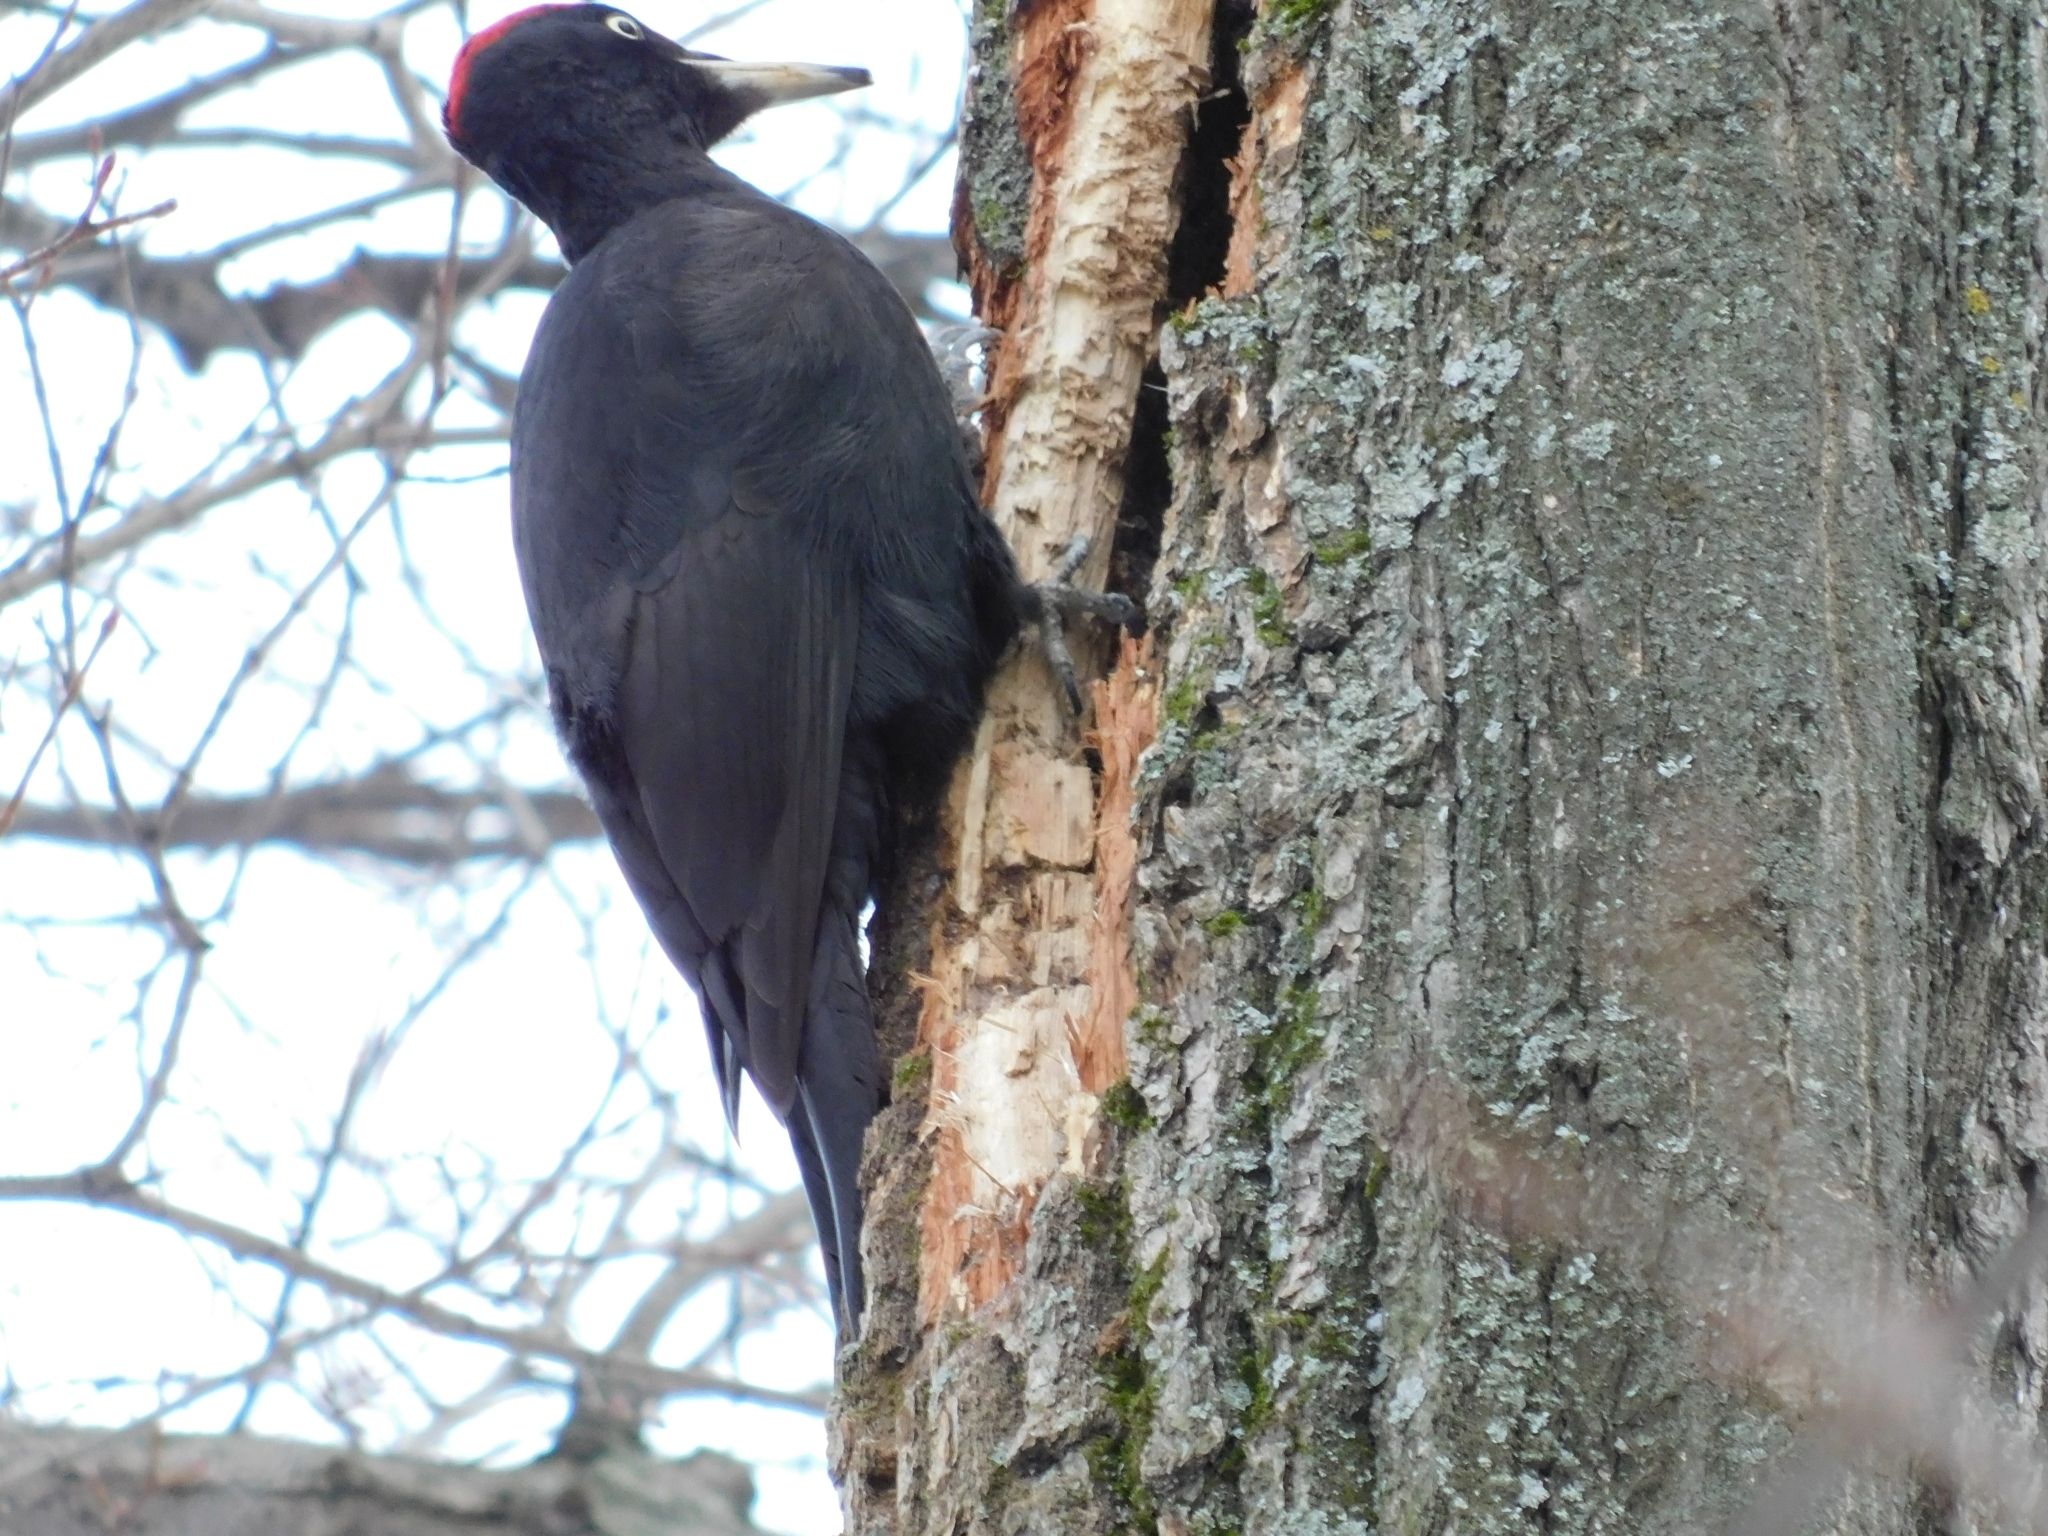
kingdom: Animalia
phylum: Chordata
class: Aves
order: Piciformes
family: Picidae
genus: Dryocopus
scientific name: Dryocopus martius
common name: Black woodpecker
